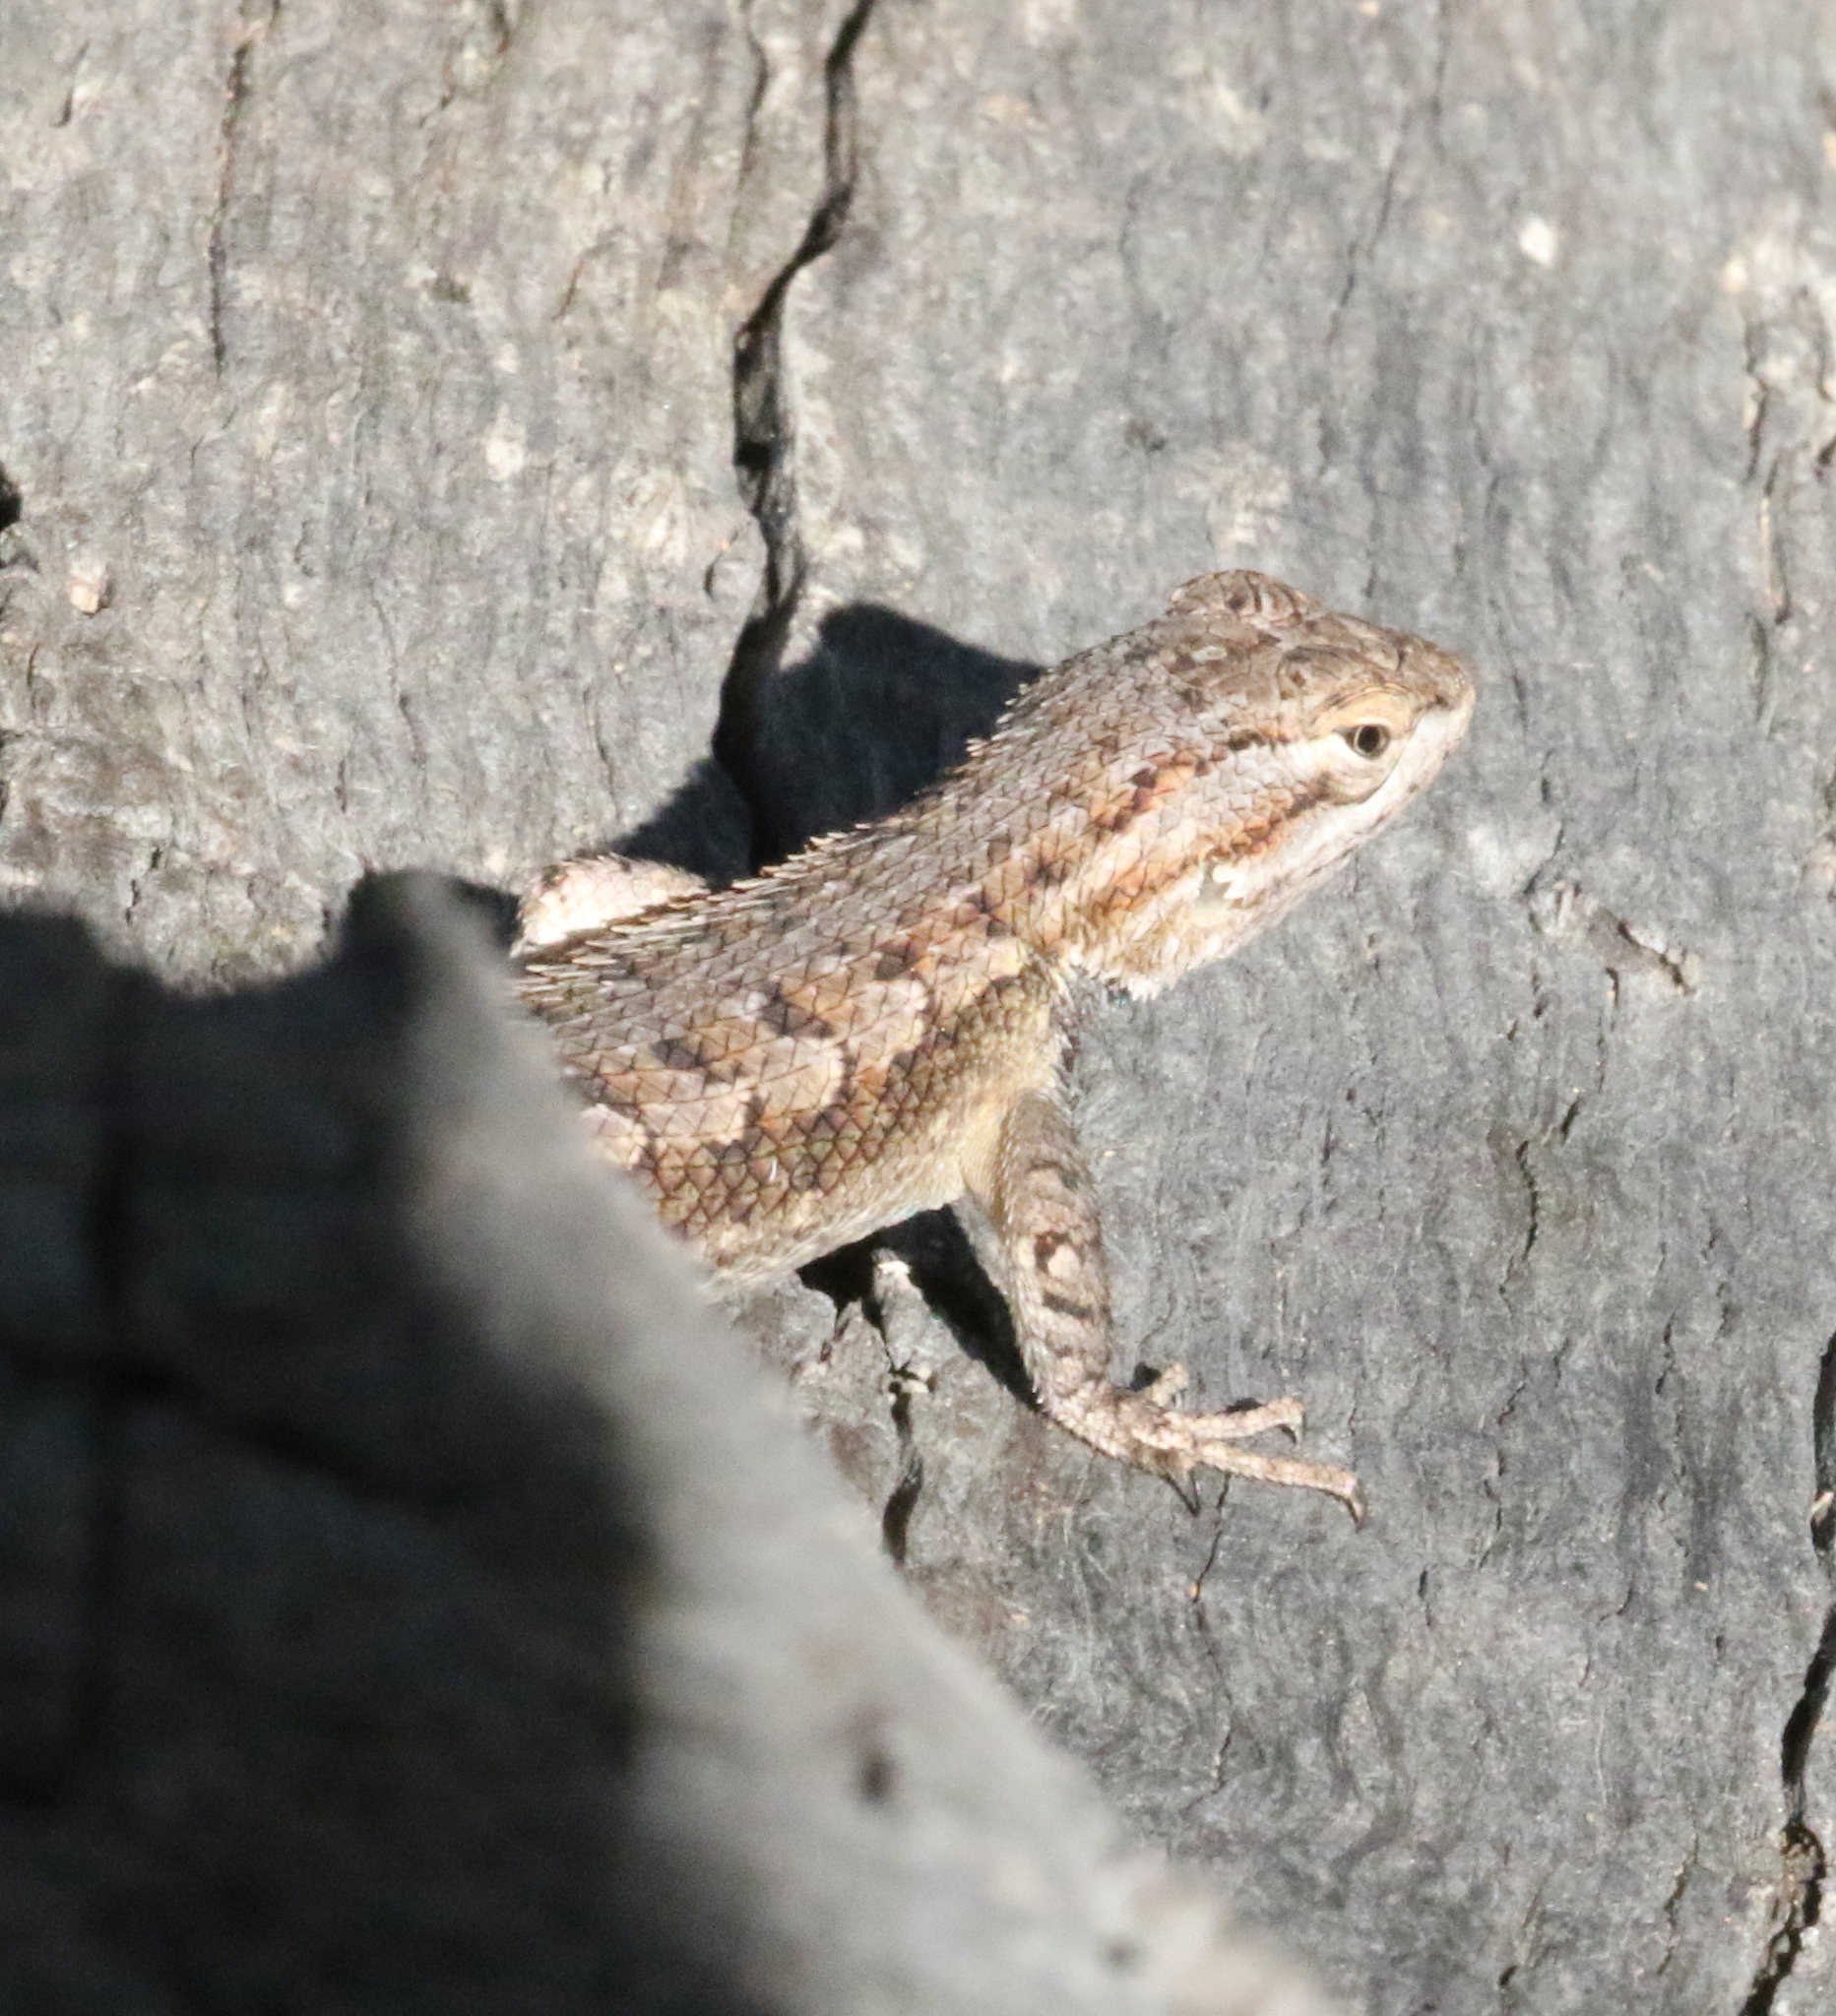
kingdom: Animalia
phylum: Chordata
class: Squamata
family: Phrynosomatidae
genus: Sceloporus
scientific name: Sceloporus cowlesi
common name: White sands prairie lizard
